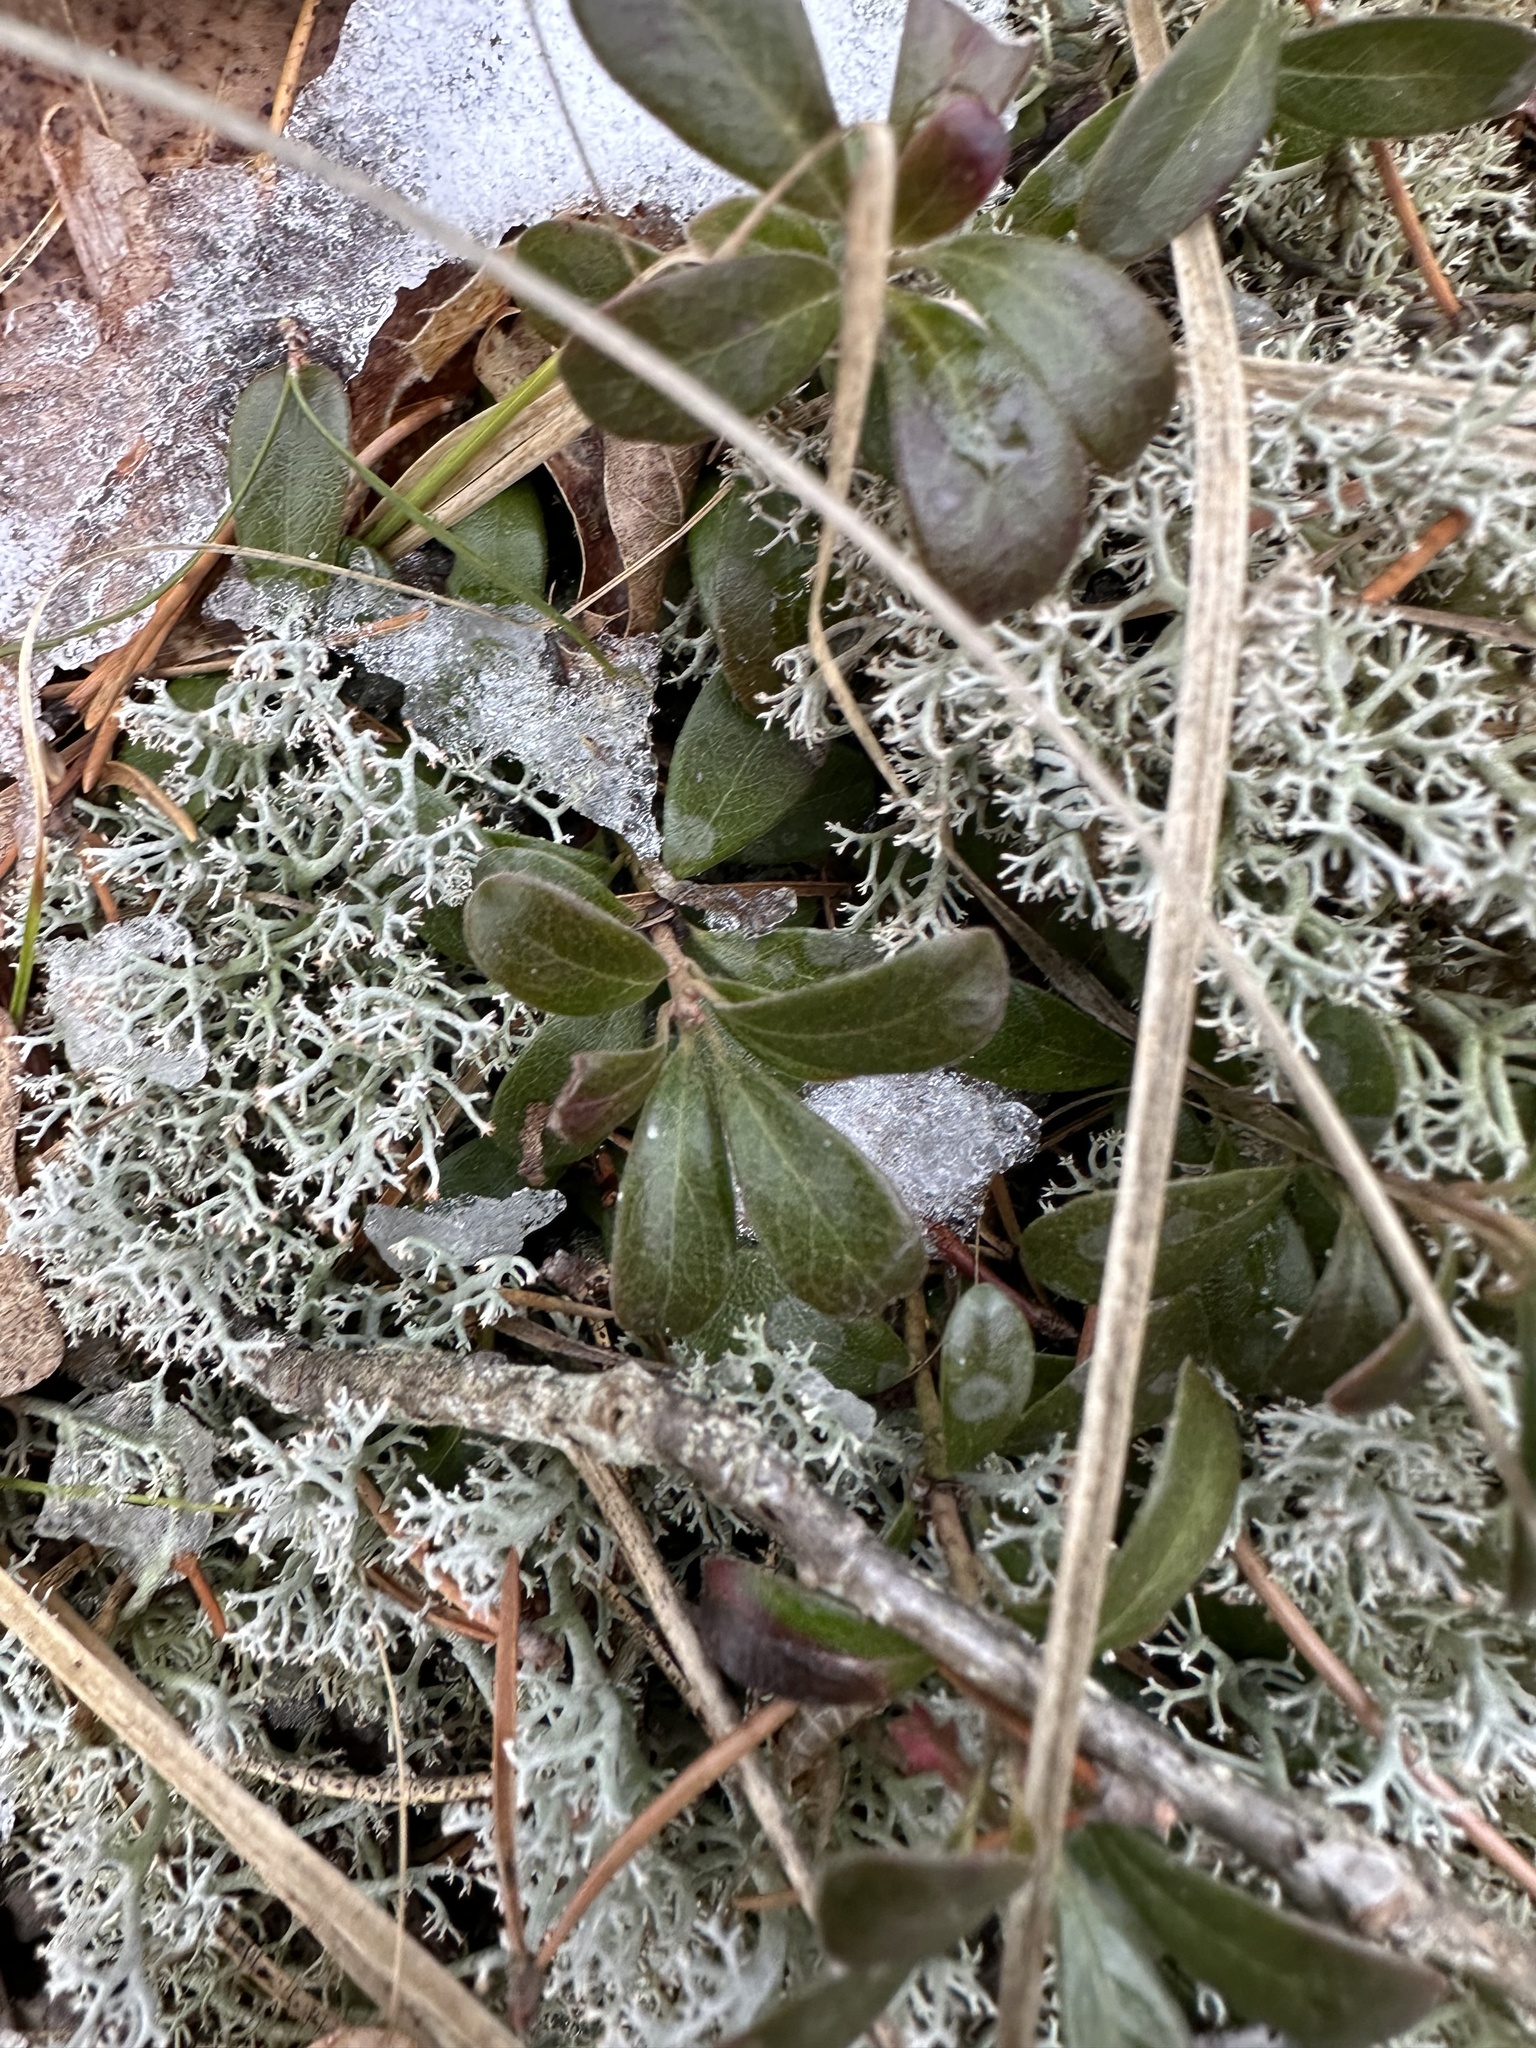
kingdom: Plantae
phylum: Tracheophyta
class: Magnoliopsida
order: Ericales
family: Ericaceae
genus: Arctostaphylos
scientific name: Arctostaphylos uva-ursi
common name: Bearberry
